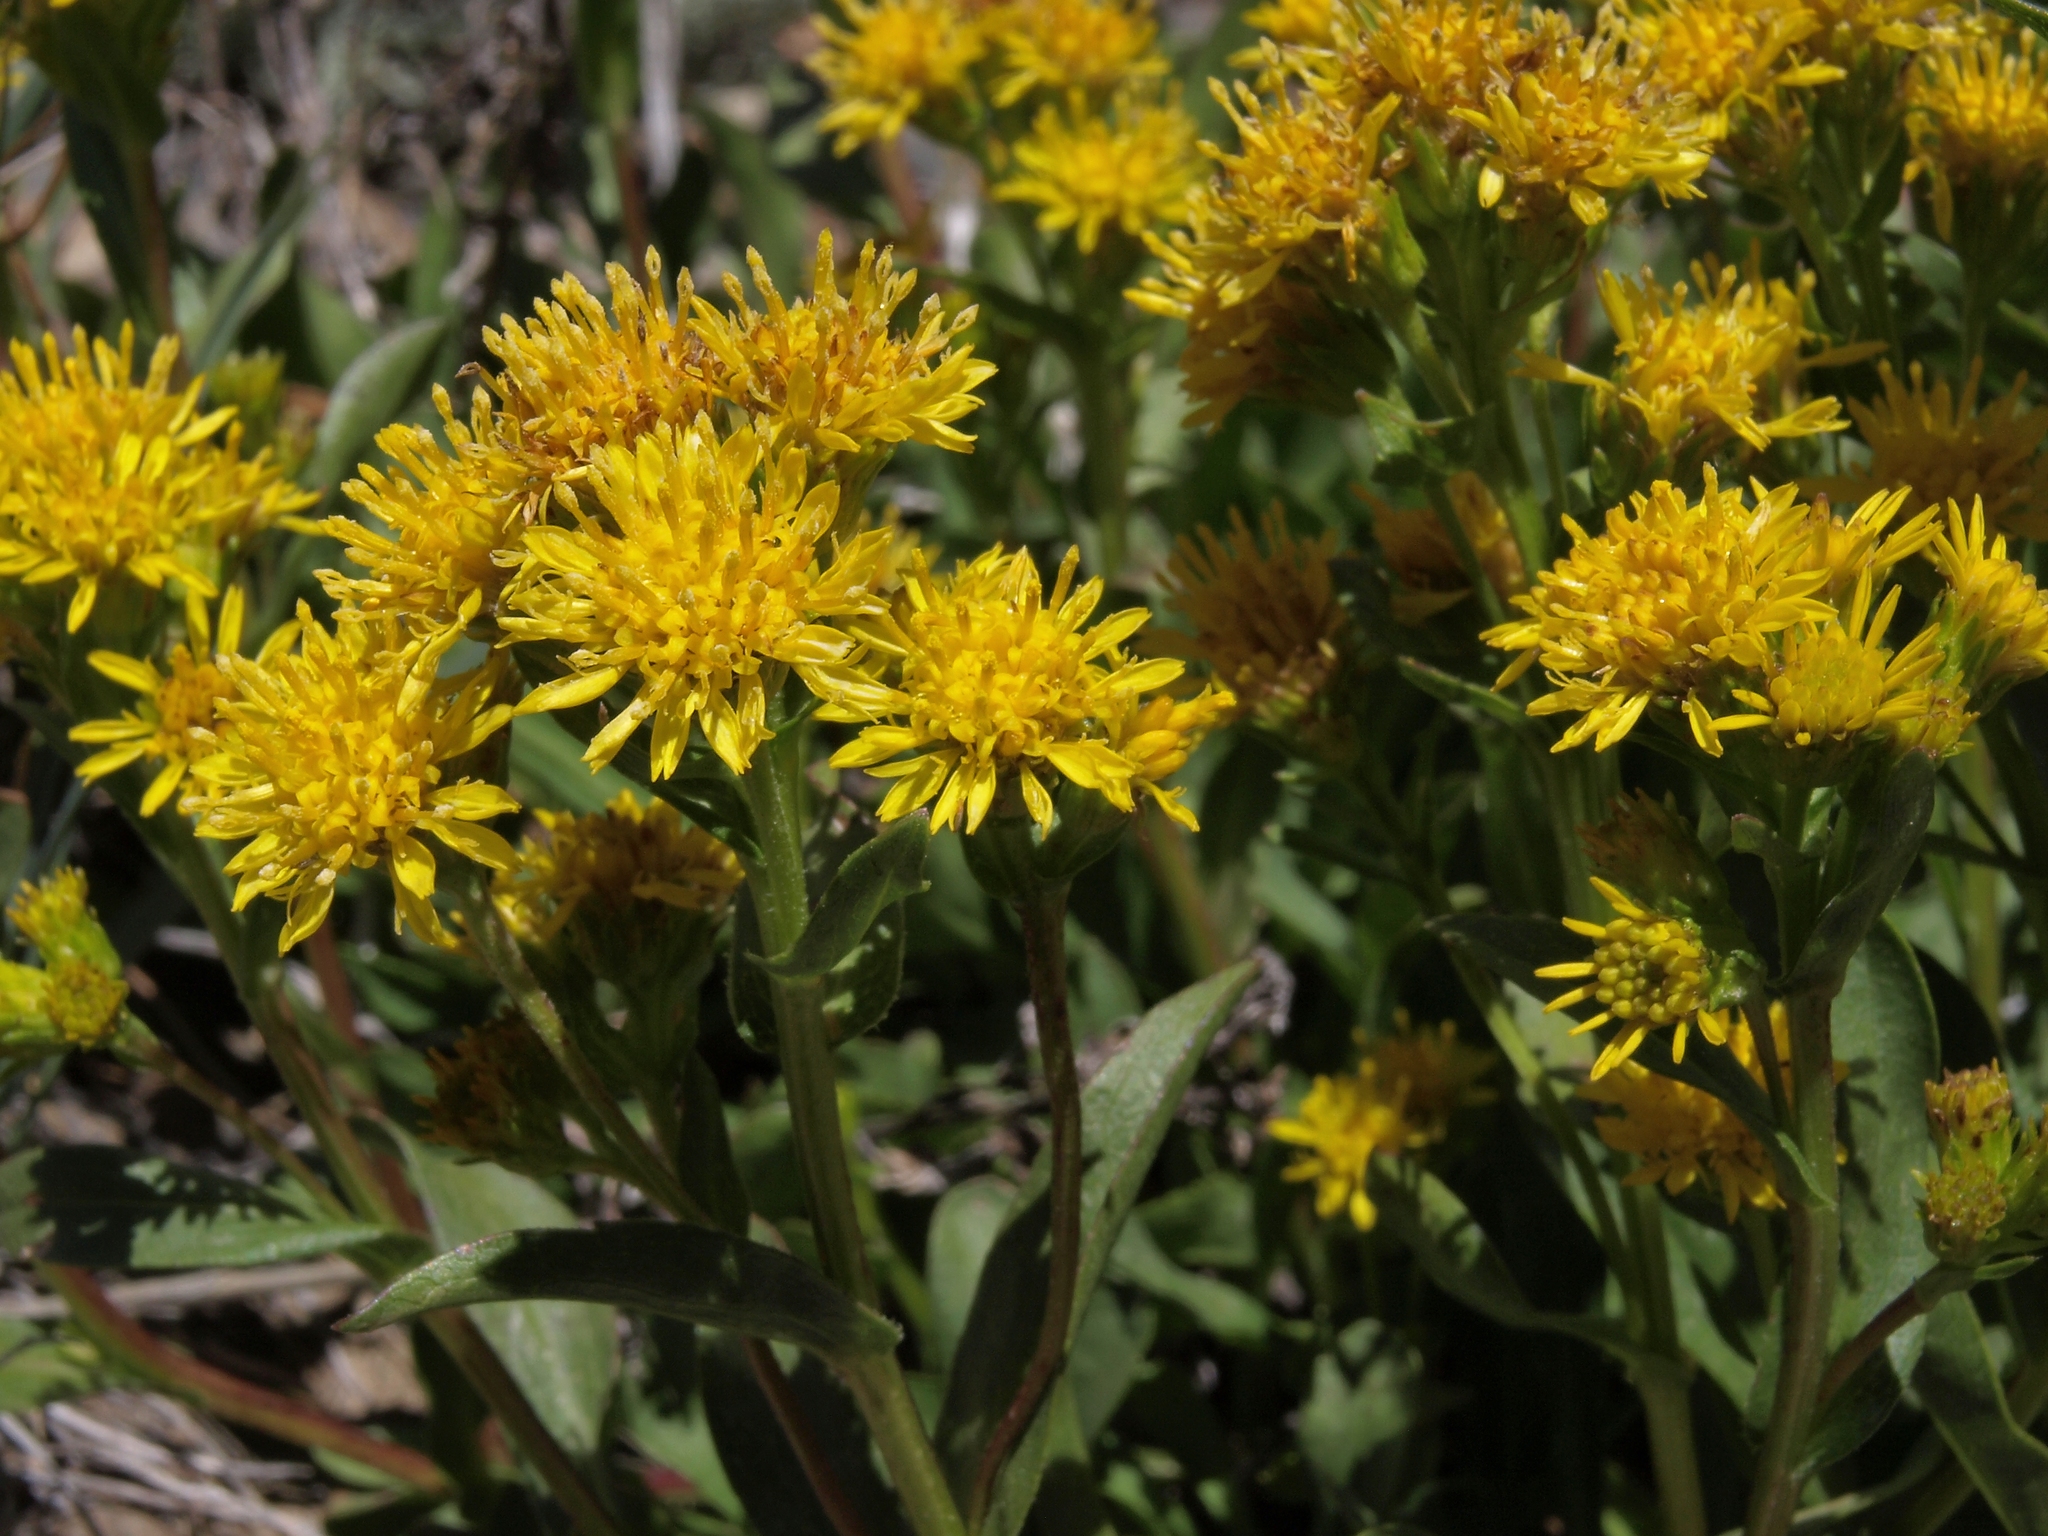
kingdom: Plantae
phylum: Tracheophyta
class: Magnoliopsida
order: Asterales
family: Asteraceae
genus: Solidago
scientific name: Solidago multiradiata
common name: Northern goldenrod
